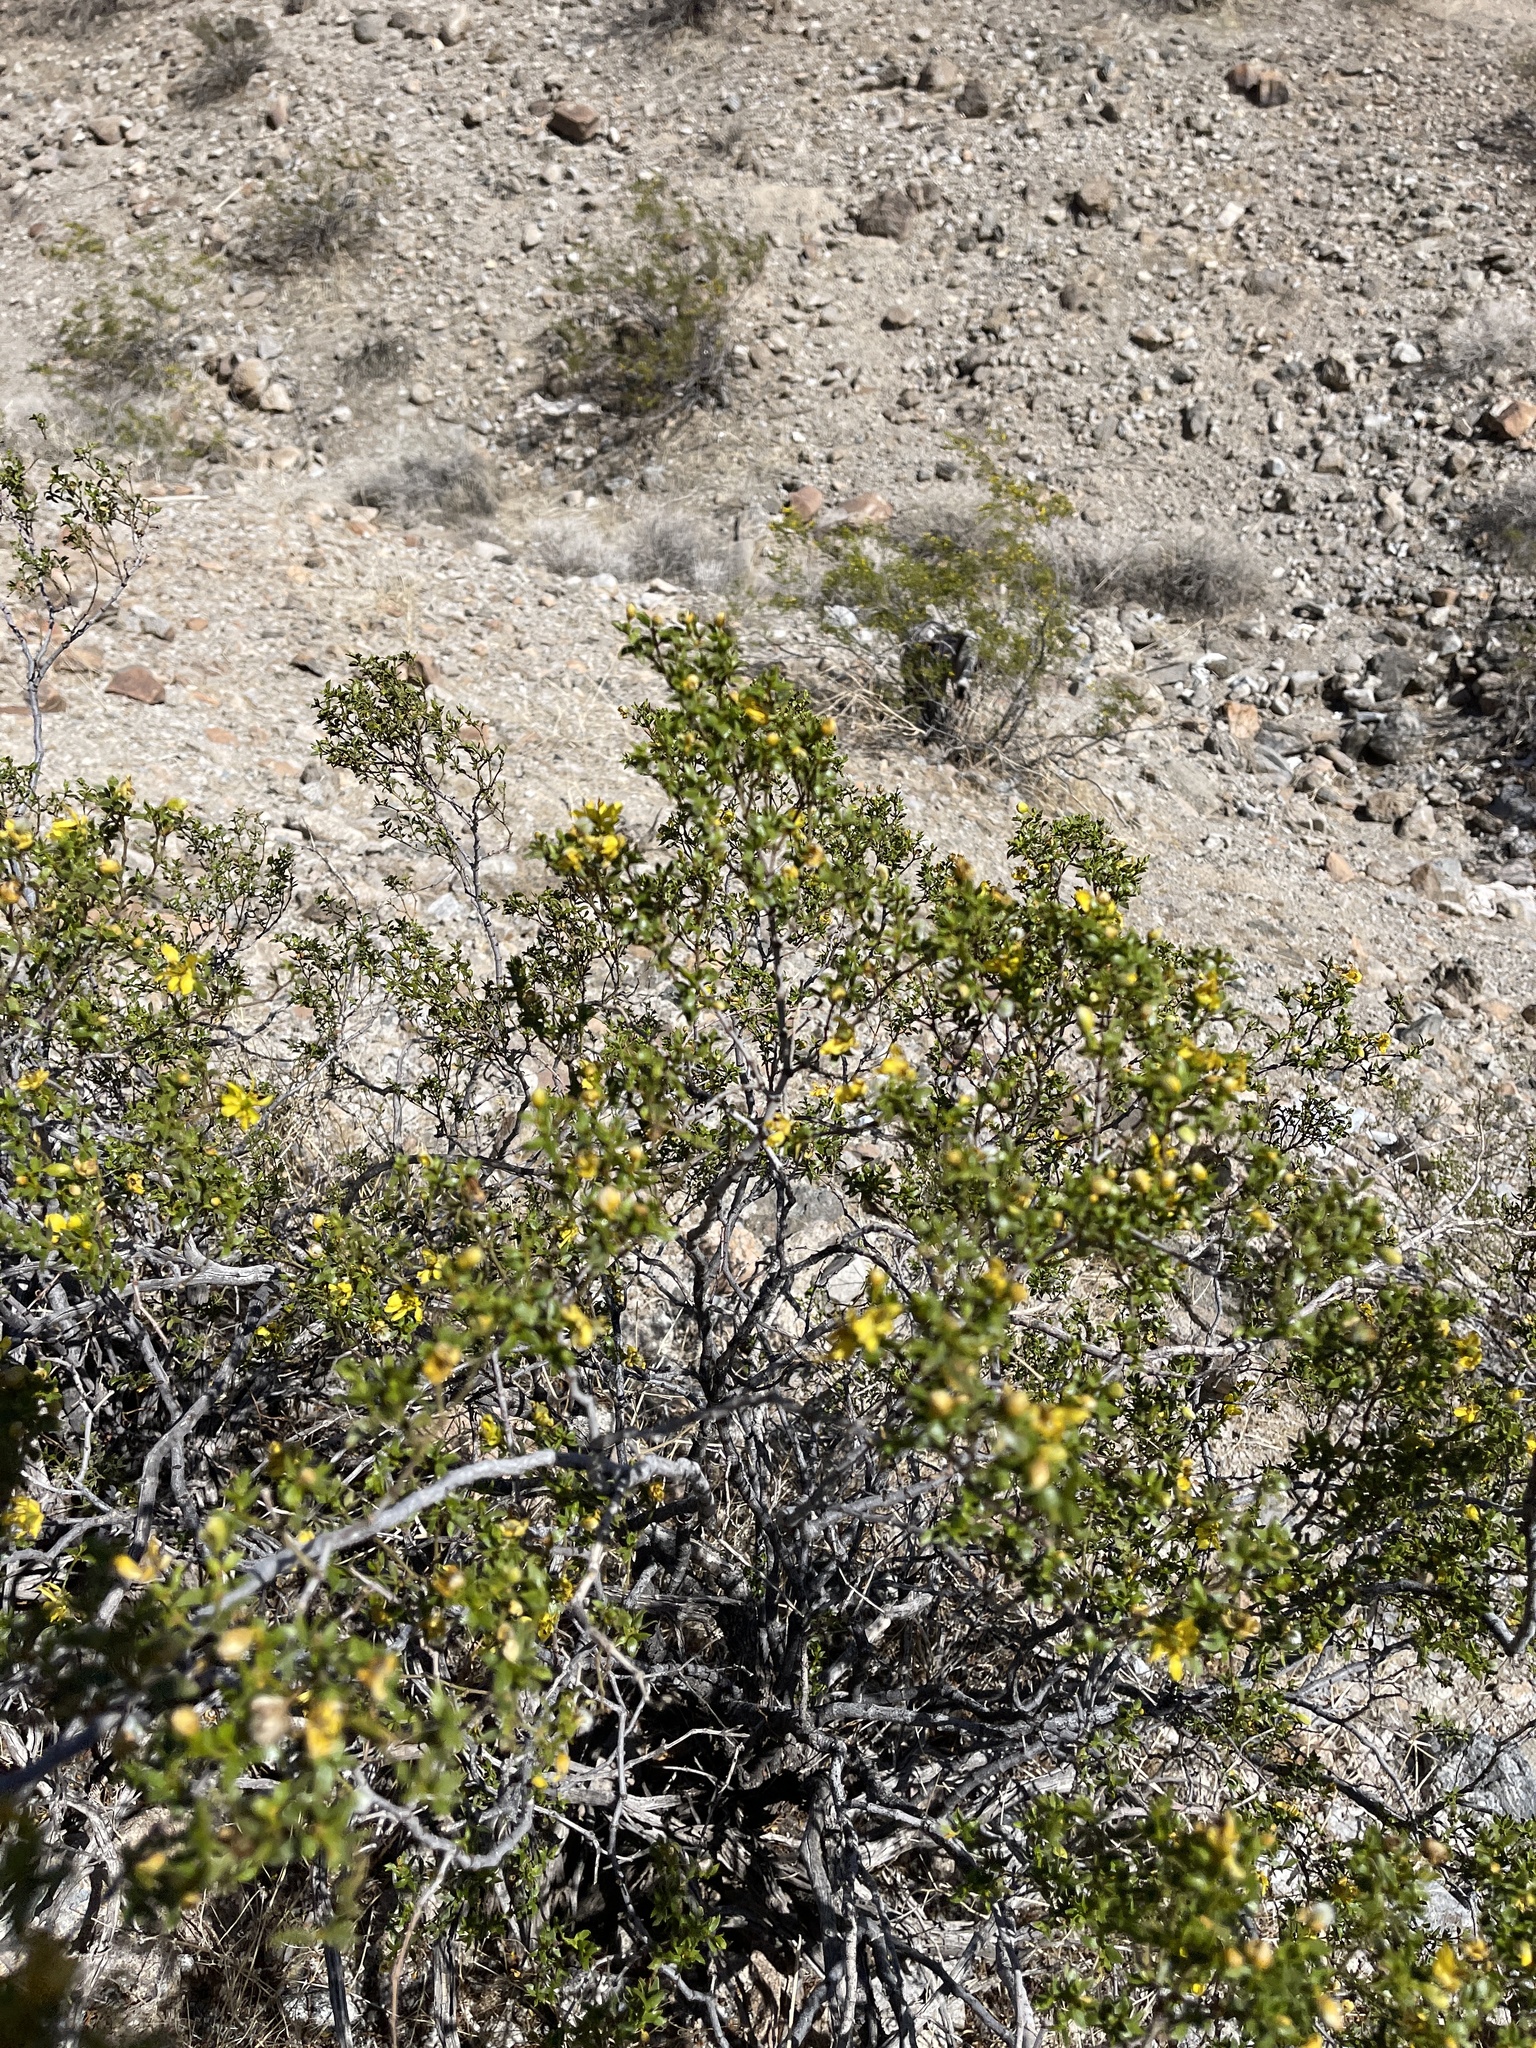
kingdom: Plantae
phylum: Tracheophyta
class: Magnoliopsida
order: Zygophyllales
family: Zygophyllaceae
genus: Larrea
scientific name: Larrea tridentata
